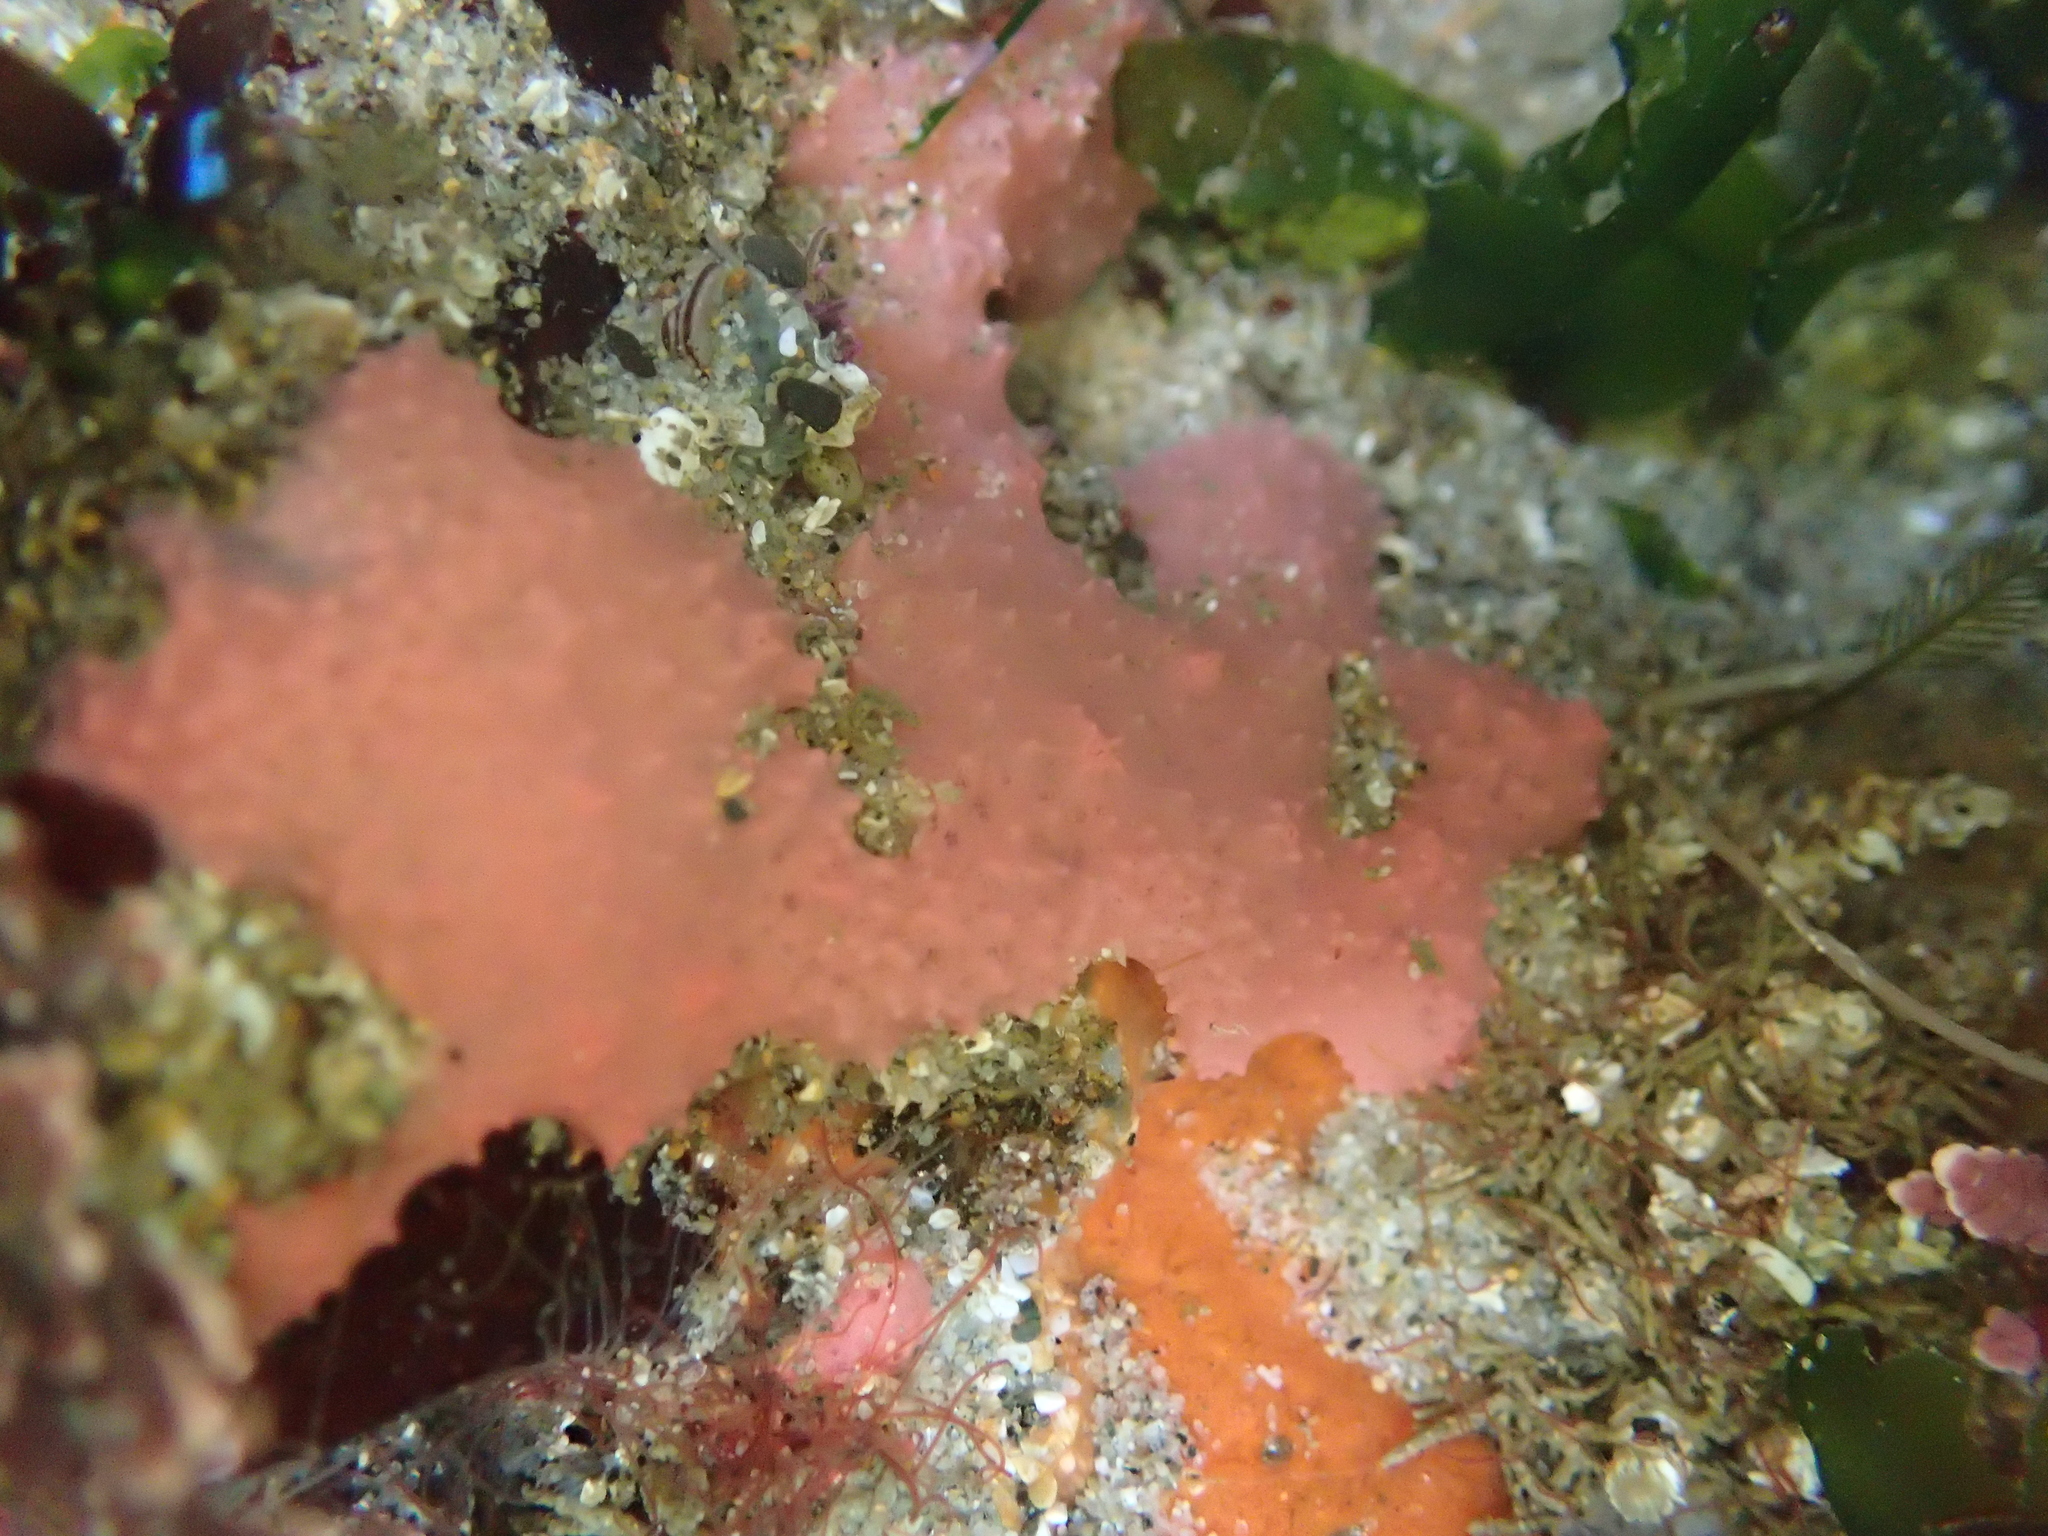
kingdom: Animalia
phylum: Porifera
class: Demospongiae
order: Dendroceratida
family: Darwinellidae
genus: Aplysilla
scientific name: Aplysilla glacialis
